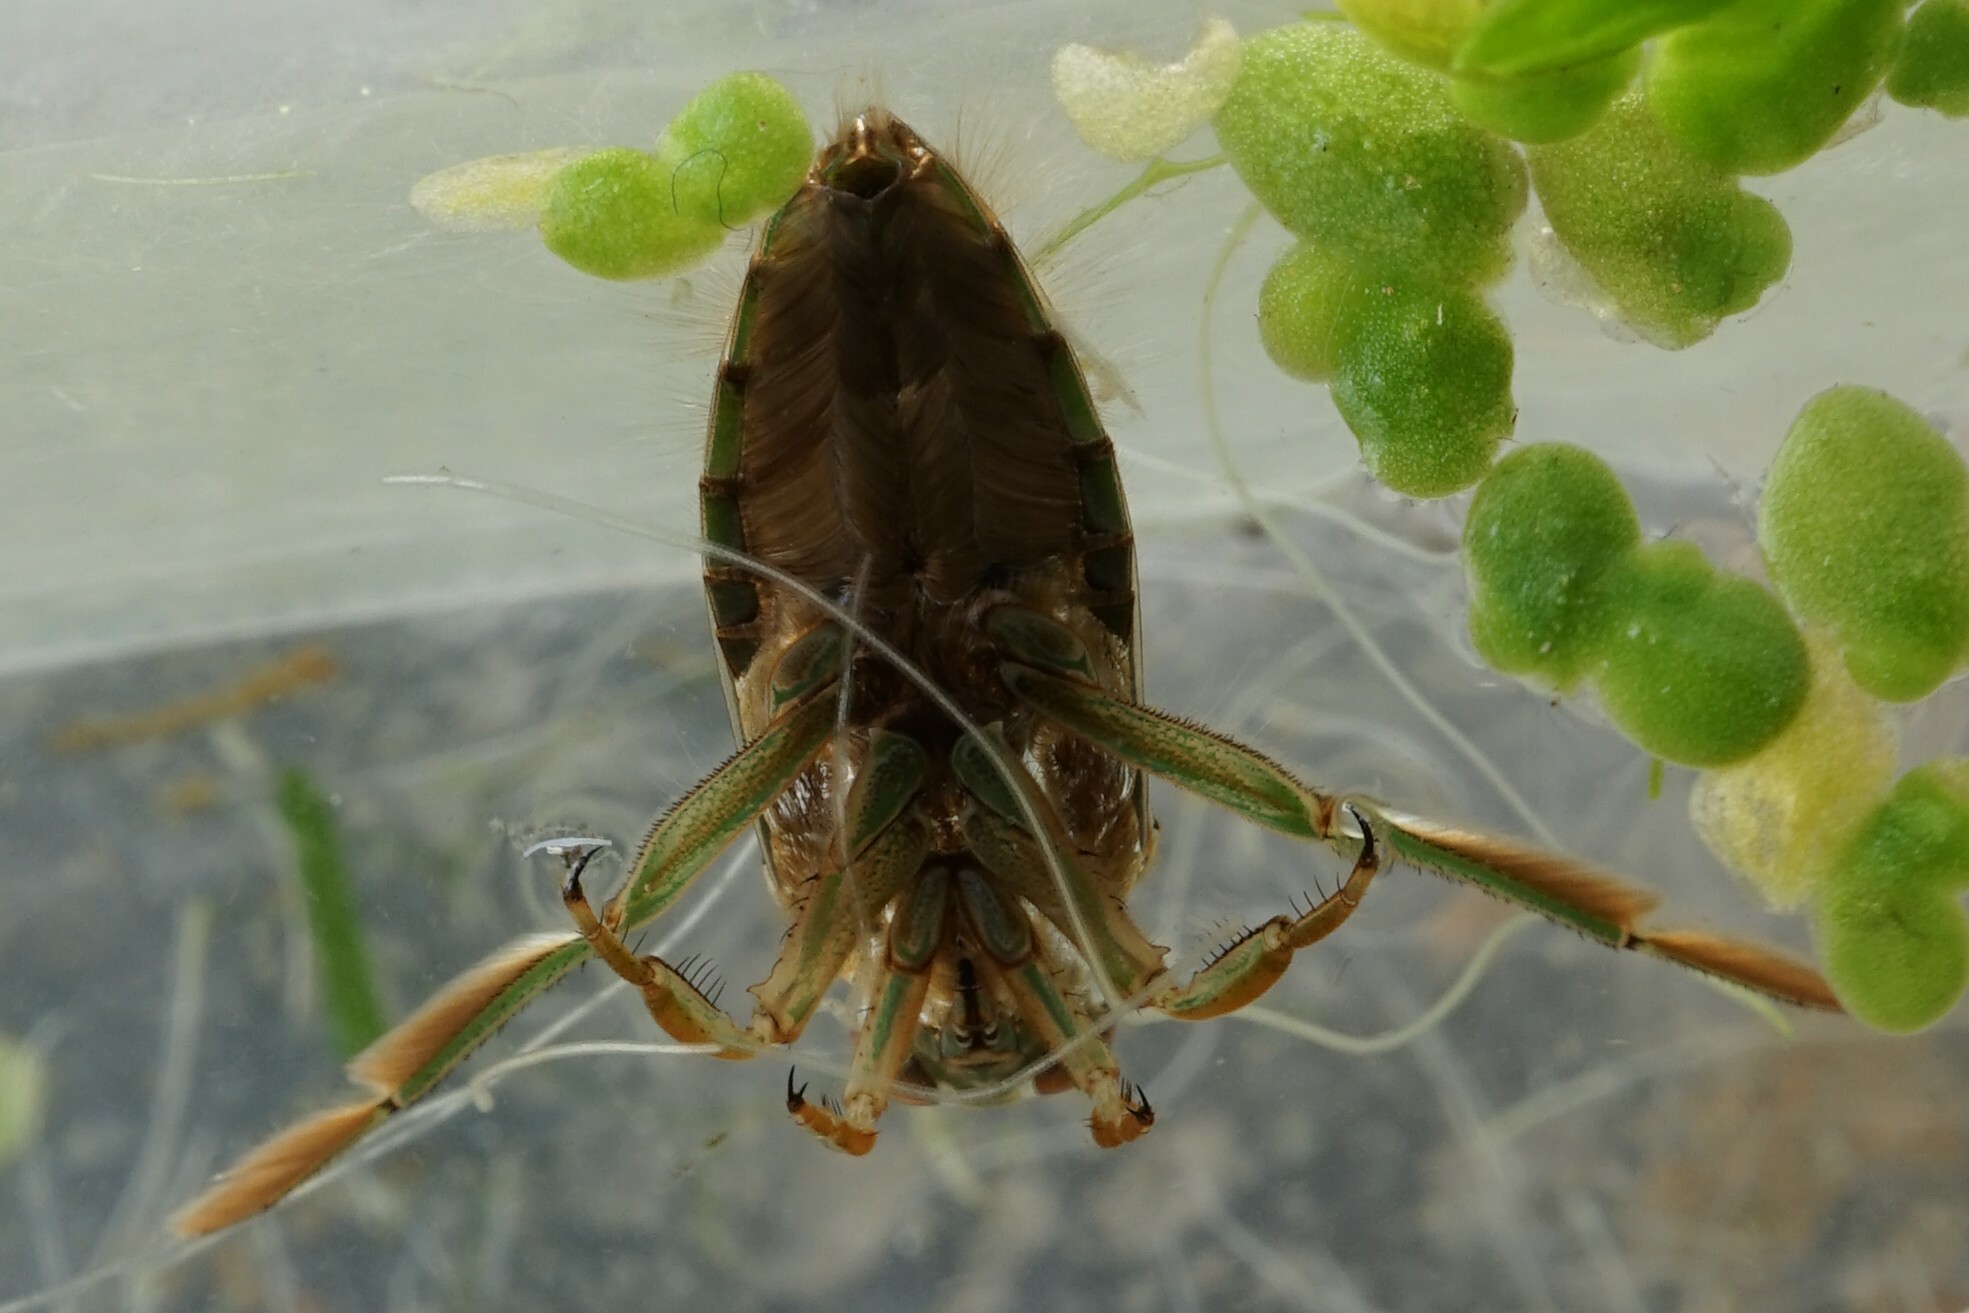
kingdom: Animalia
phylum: Arthropoda
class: Insecta
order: Hemiptera
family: Notonectidae
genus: Notonecta
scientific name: Notonecta triguttata
